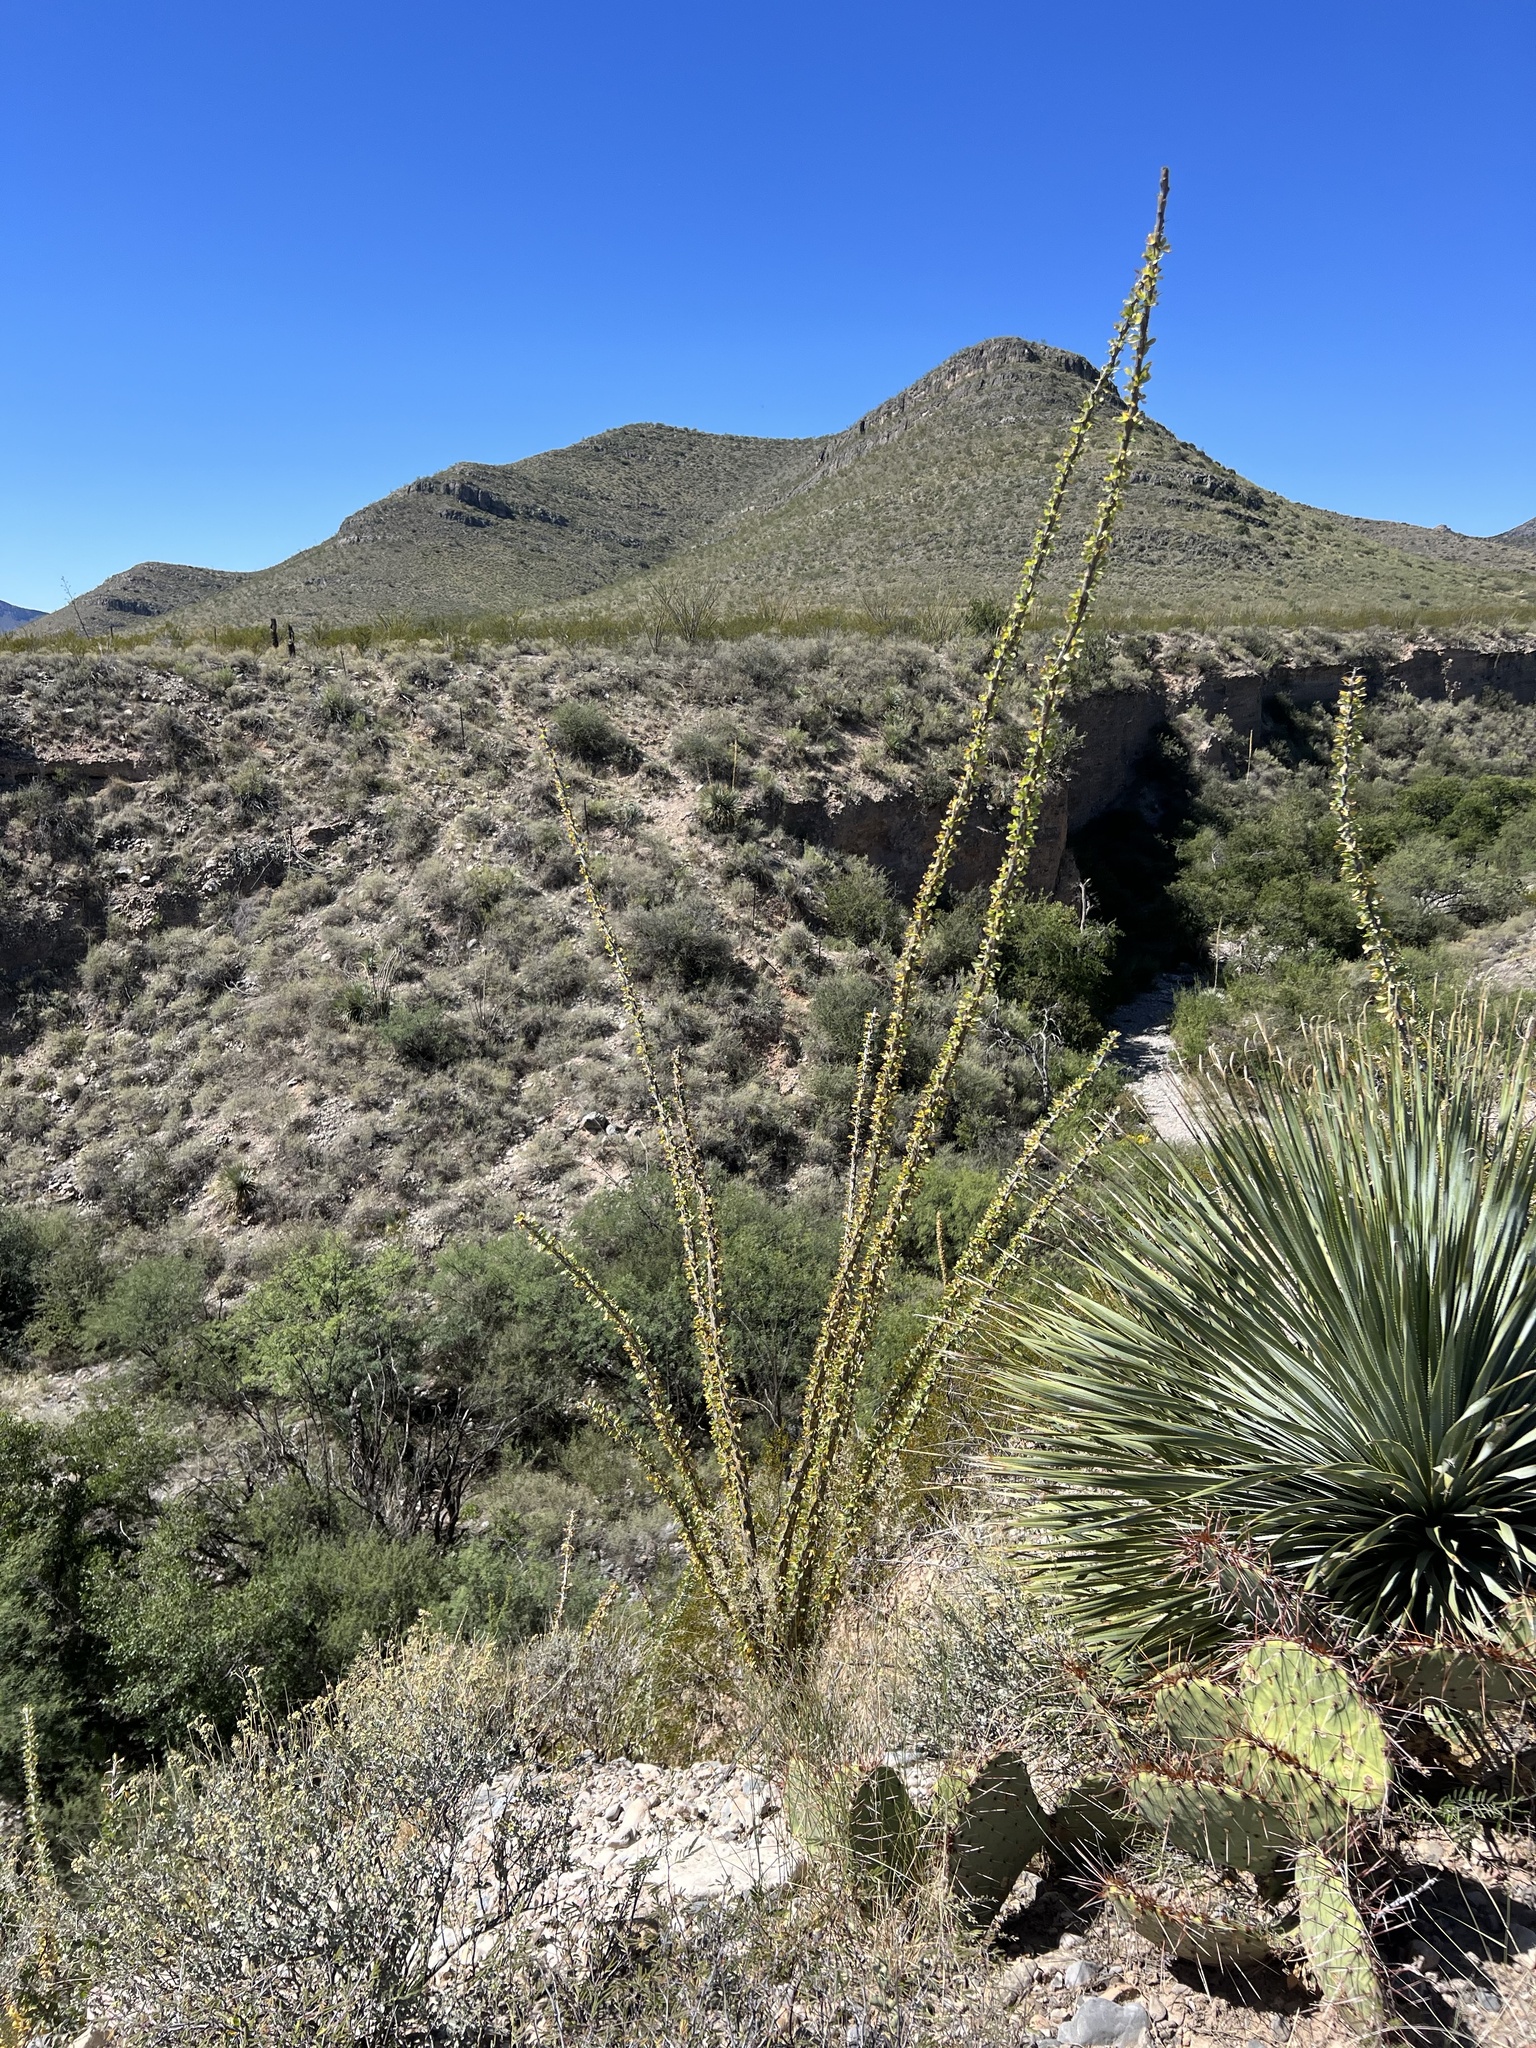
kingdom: Plantae
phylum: Tracheophyta
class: Magnoliopsida
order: Ericales
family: Fouquieriaceae
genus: Fouquieria
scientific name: Fouquieria splendens
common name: Vine-cactus
